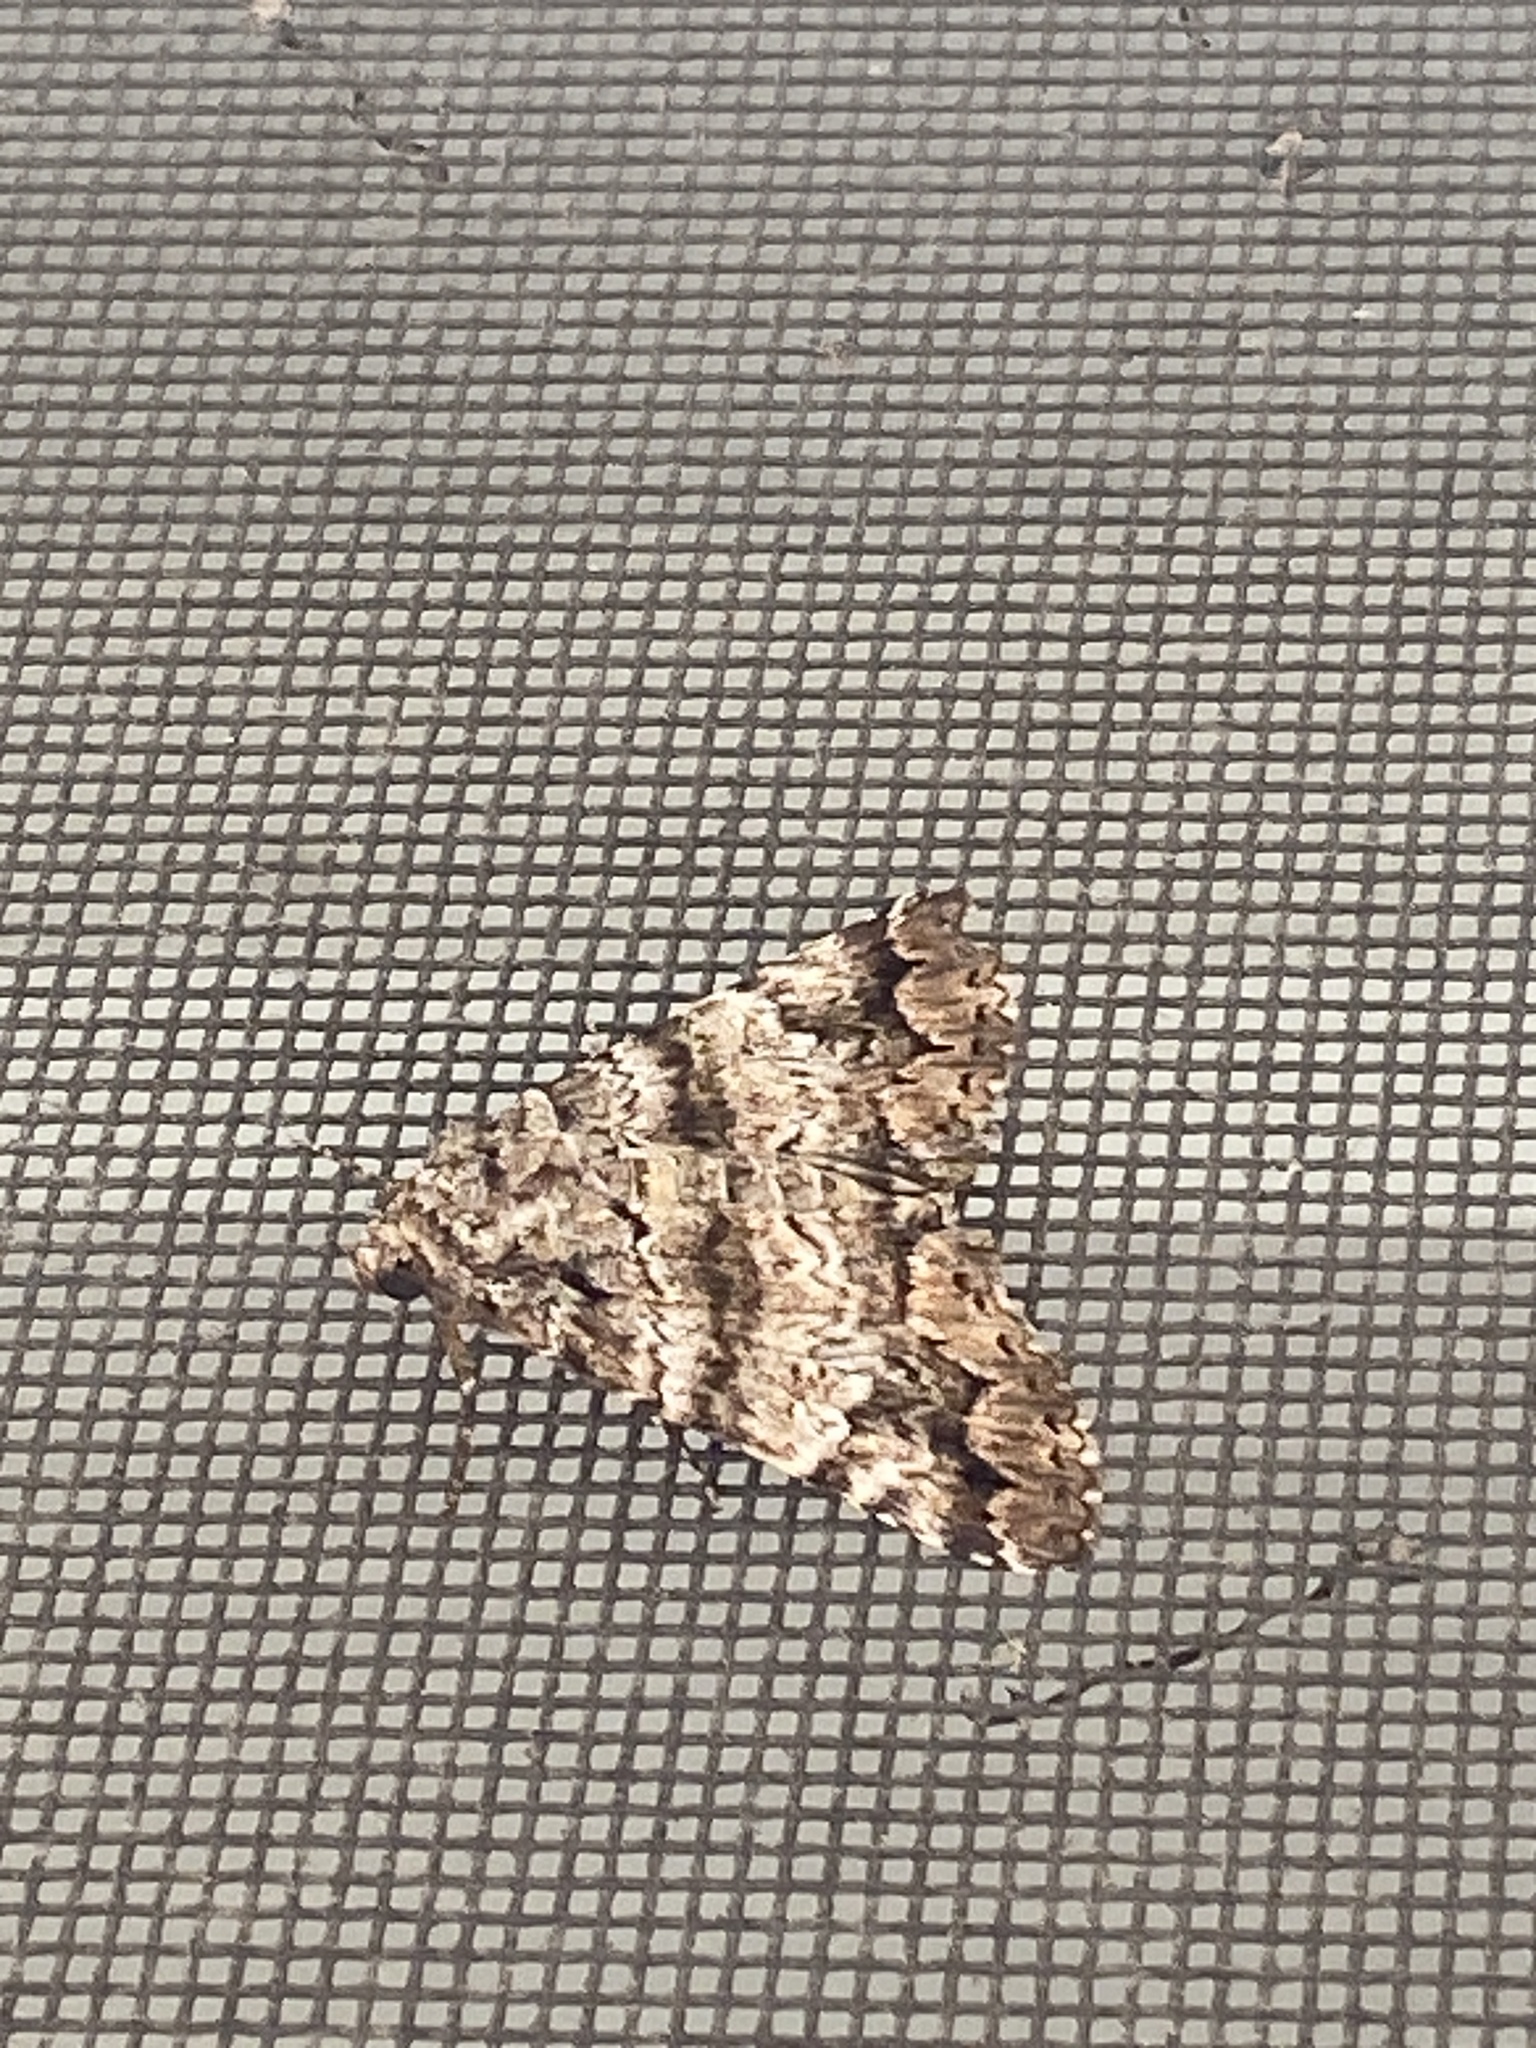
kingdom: Animalia
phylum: Arthropoda
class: Insecta
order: Lepidoptera
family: Erebidae
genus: Metria
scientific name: Metria amella
